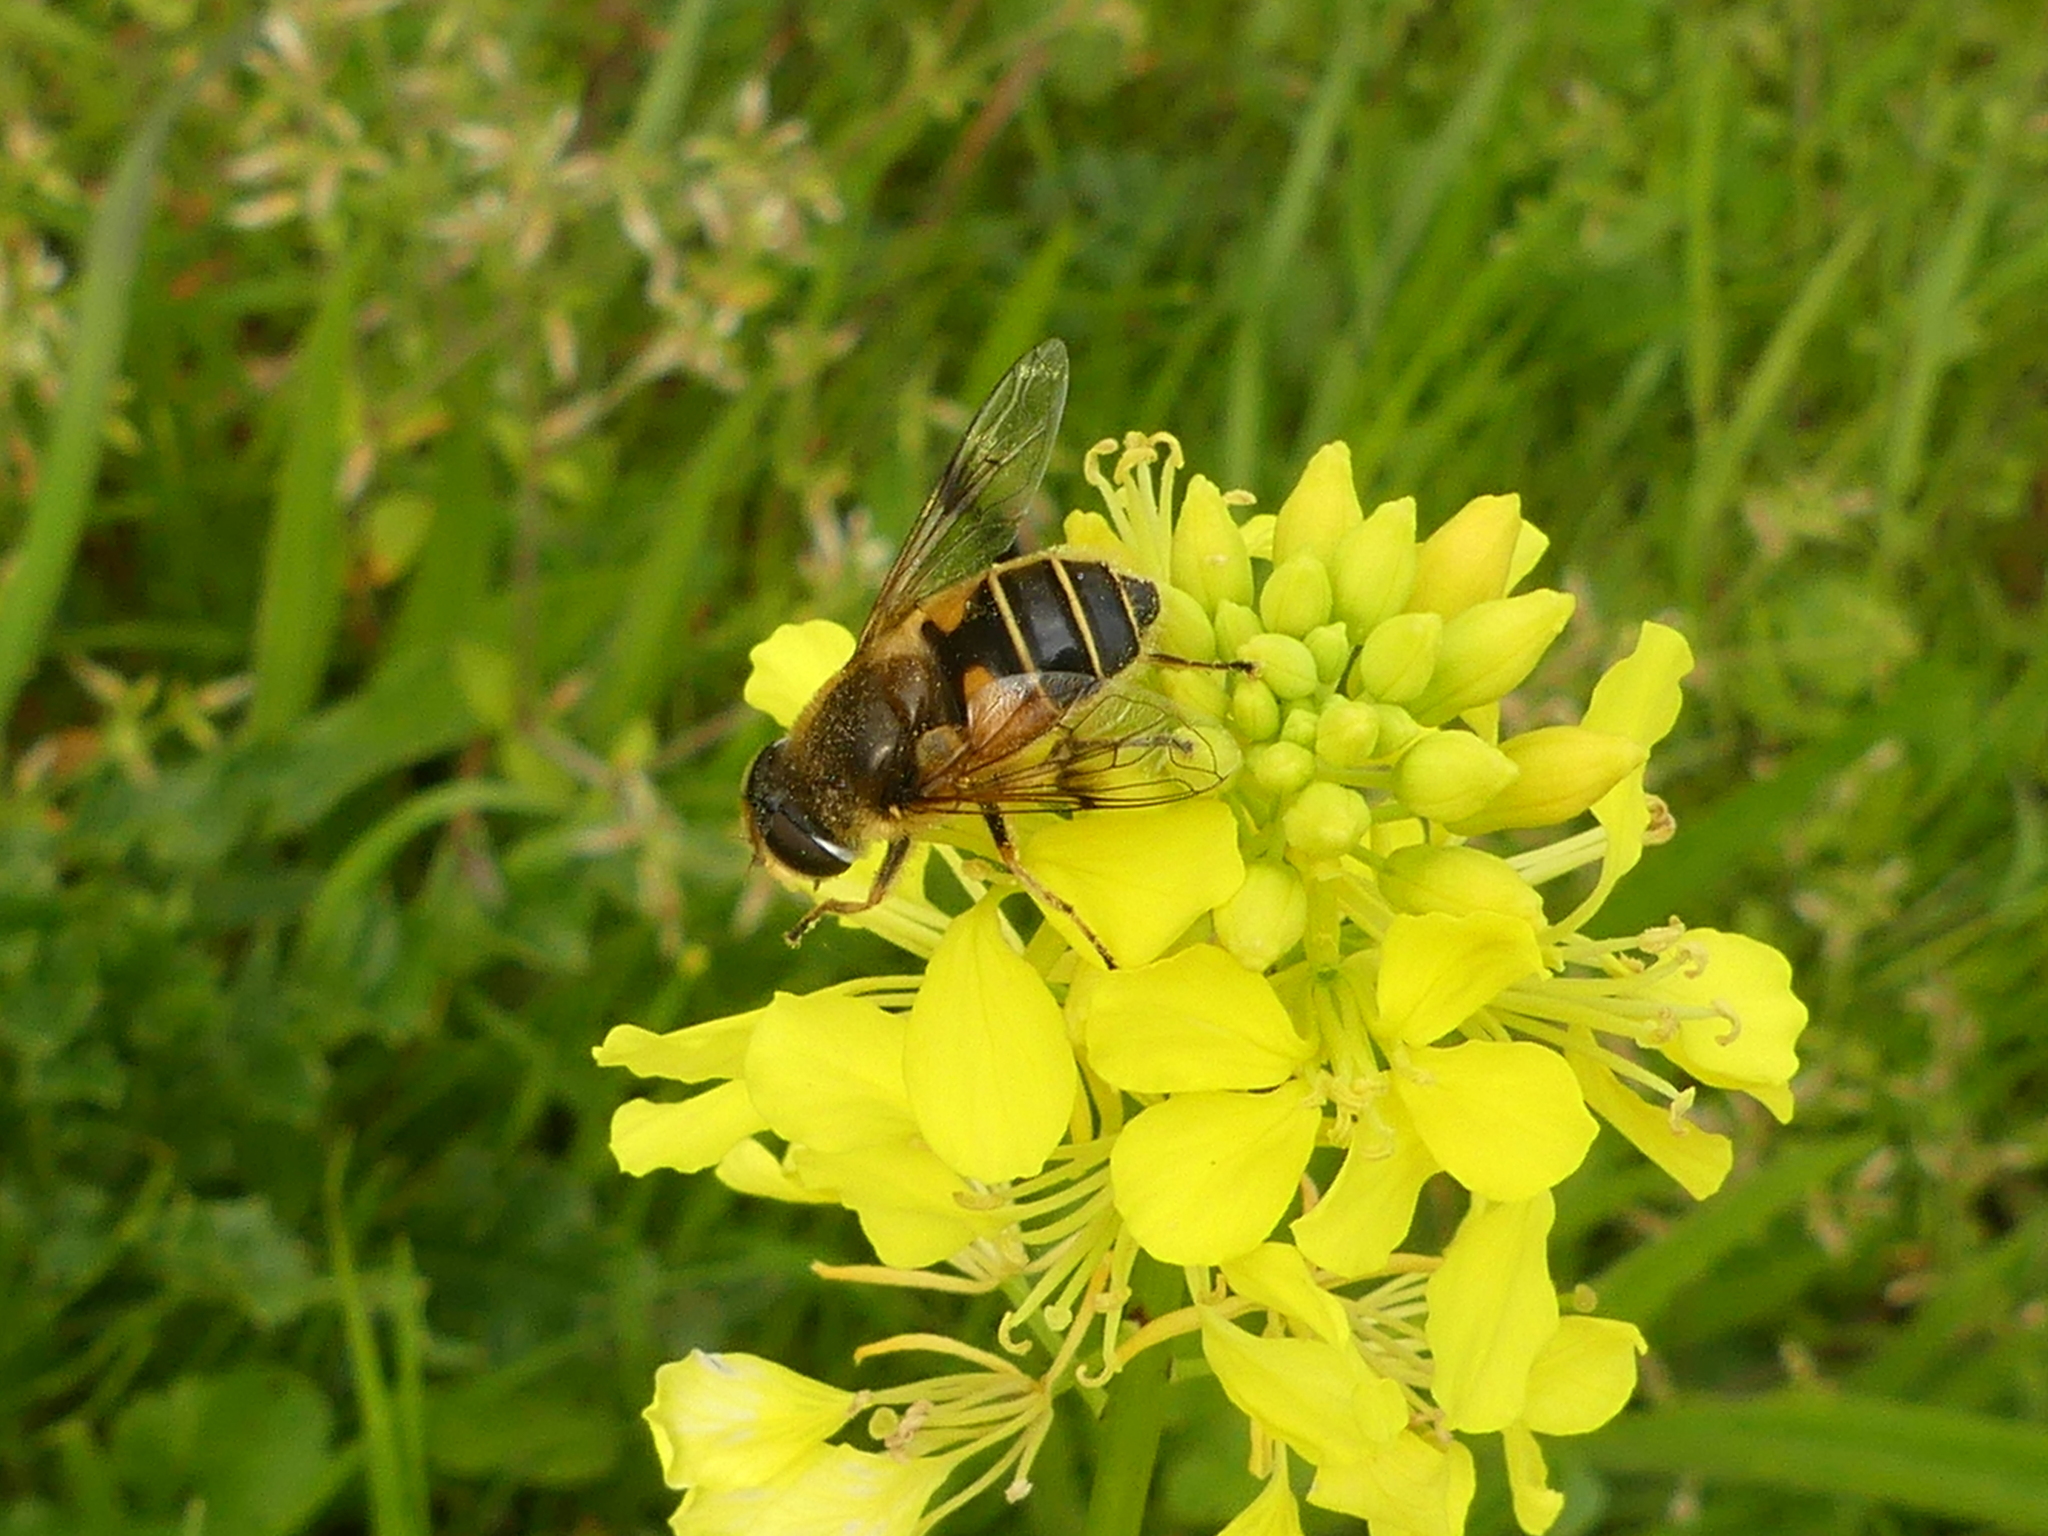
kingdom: Animalia
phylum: Arthropoda
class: Insecta
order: Diptera
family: Syrphidae
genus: Cheilosia
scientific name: Cheilosia morio
